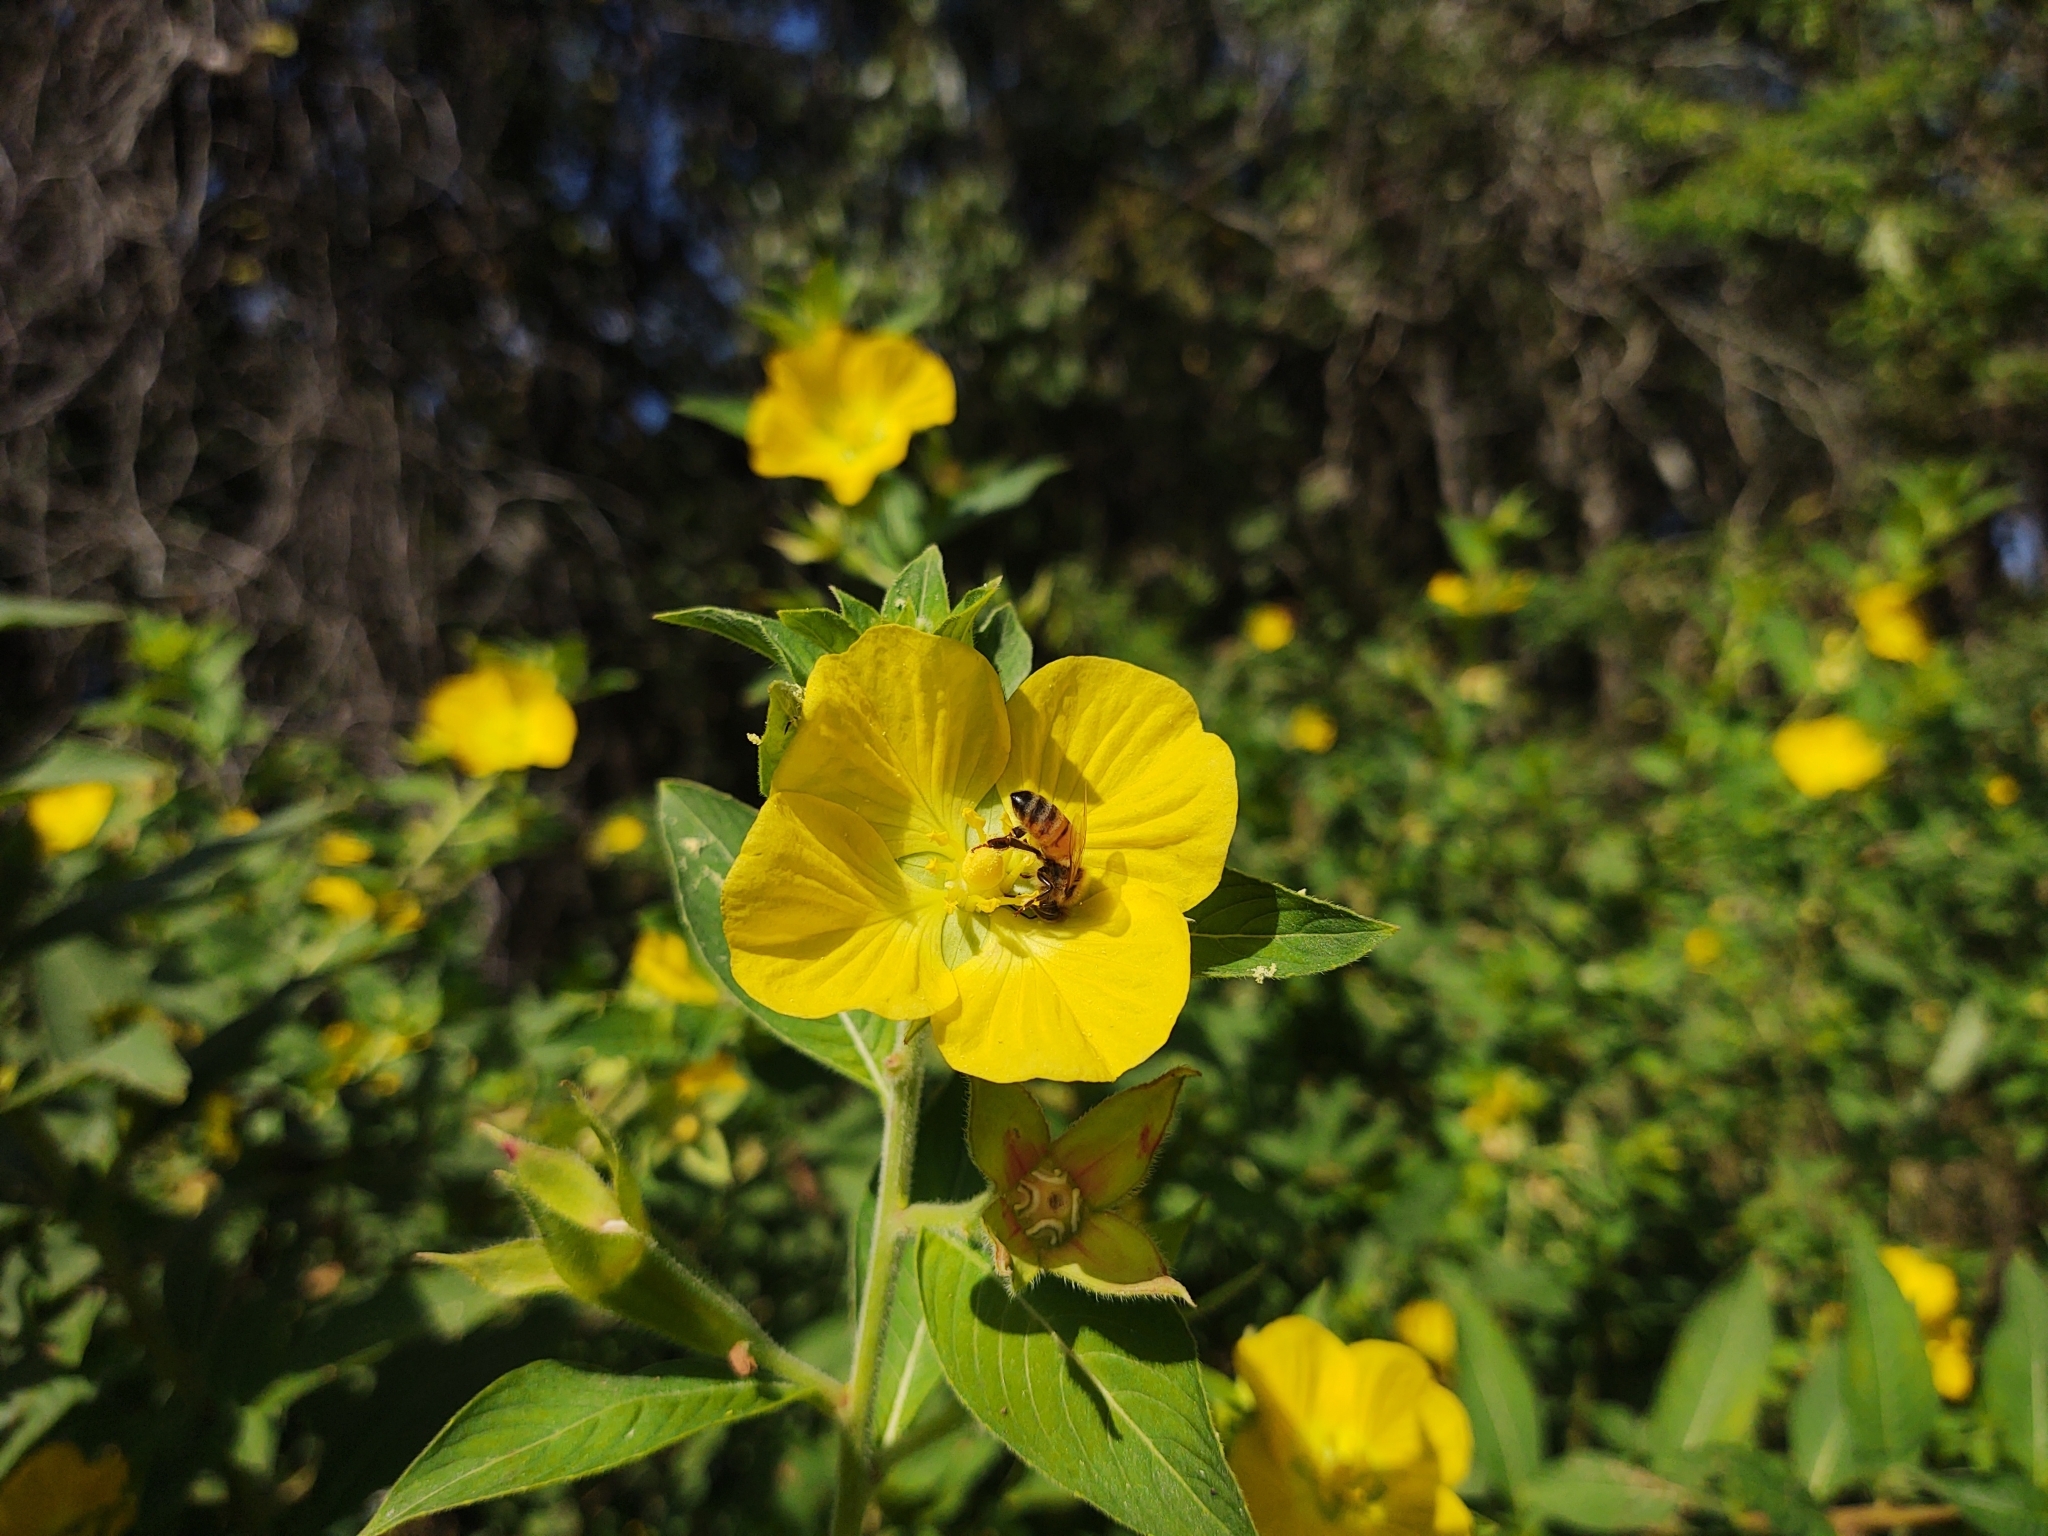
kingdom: Animalia
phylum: Arthropoda
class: Insecta
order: Hymenoptera
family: Apidae
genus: Apis
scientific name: Apis mellifera
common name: Honey bee
